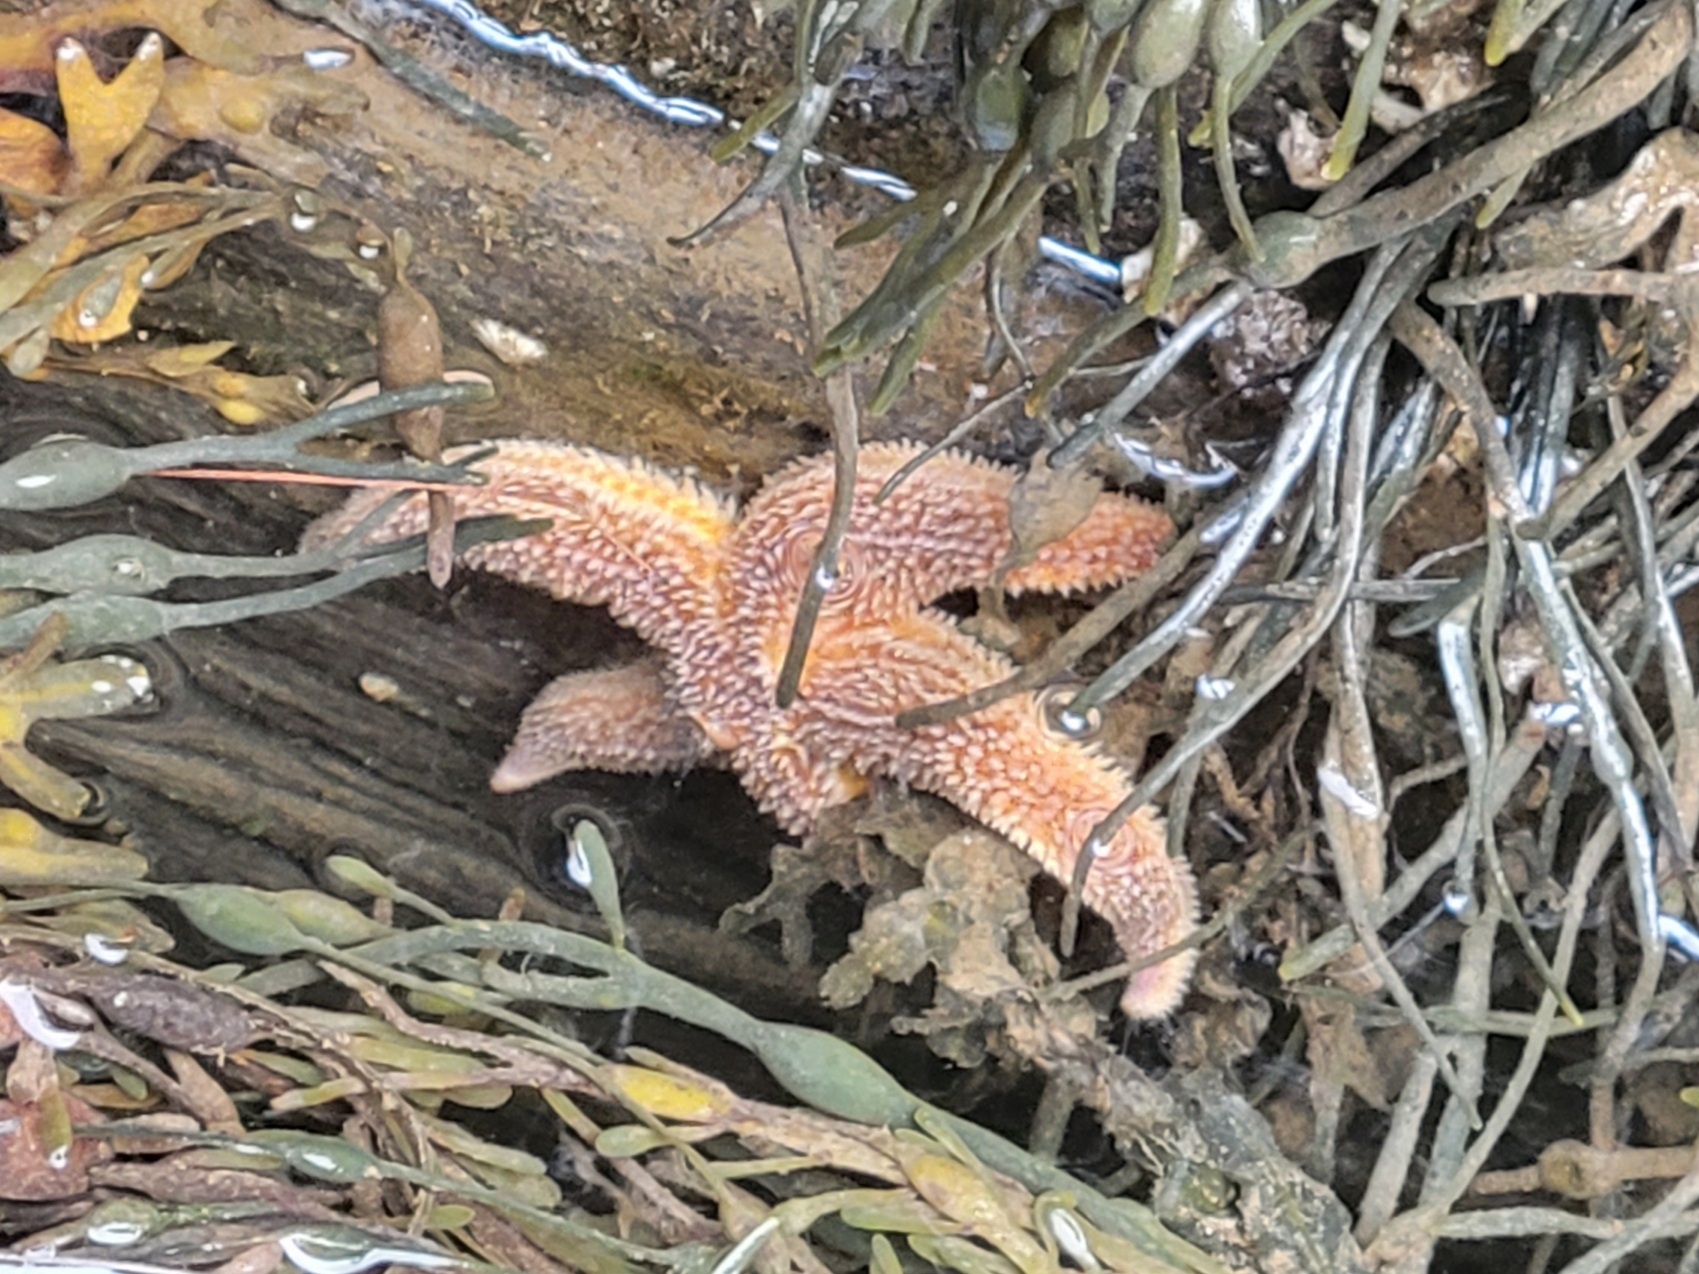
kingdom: Animalia
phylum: Echinodermata
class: Asteroidea
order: Forcipulatida
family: Asteriidae
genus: Asterias
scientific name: Asterias rubens
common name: Common starfish
